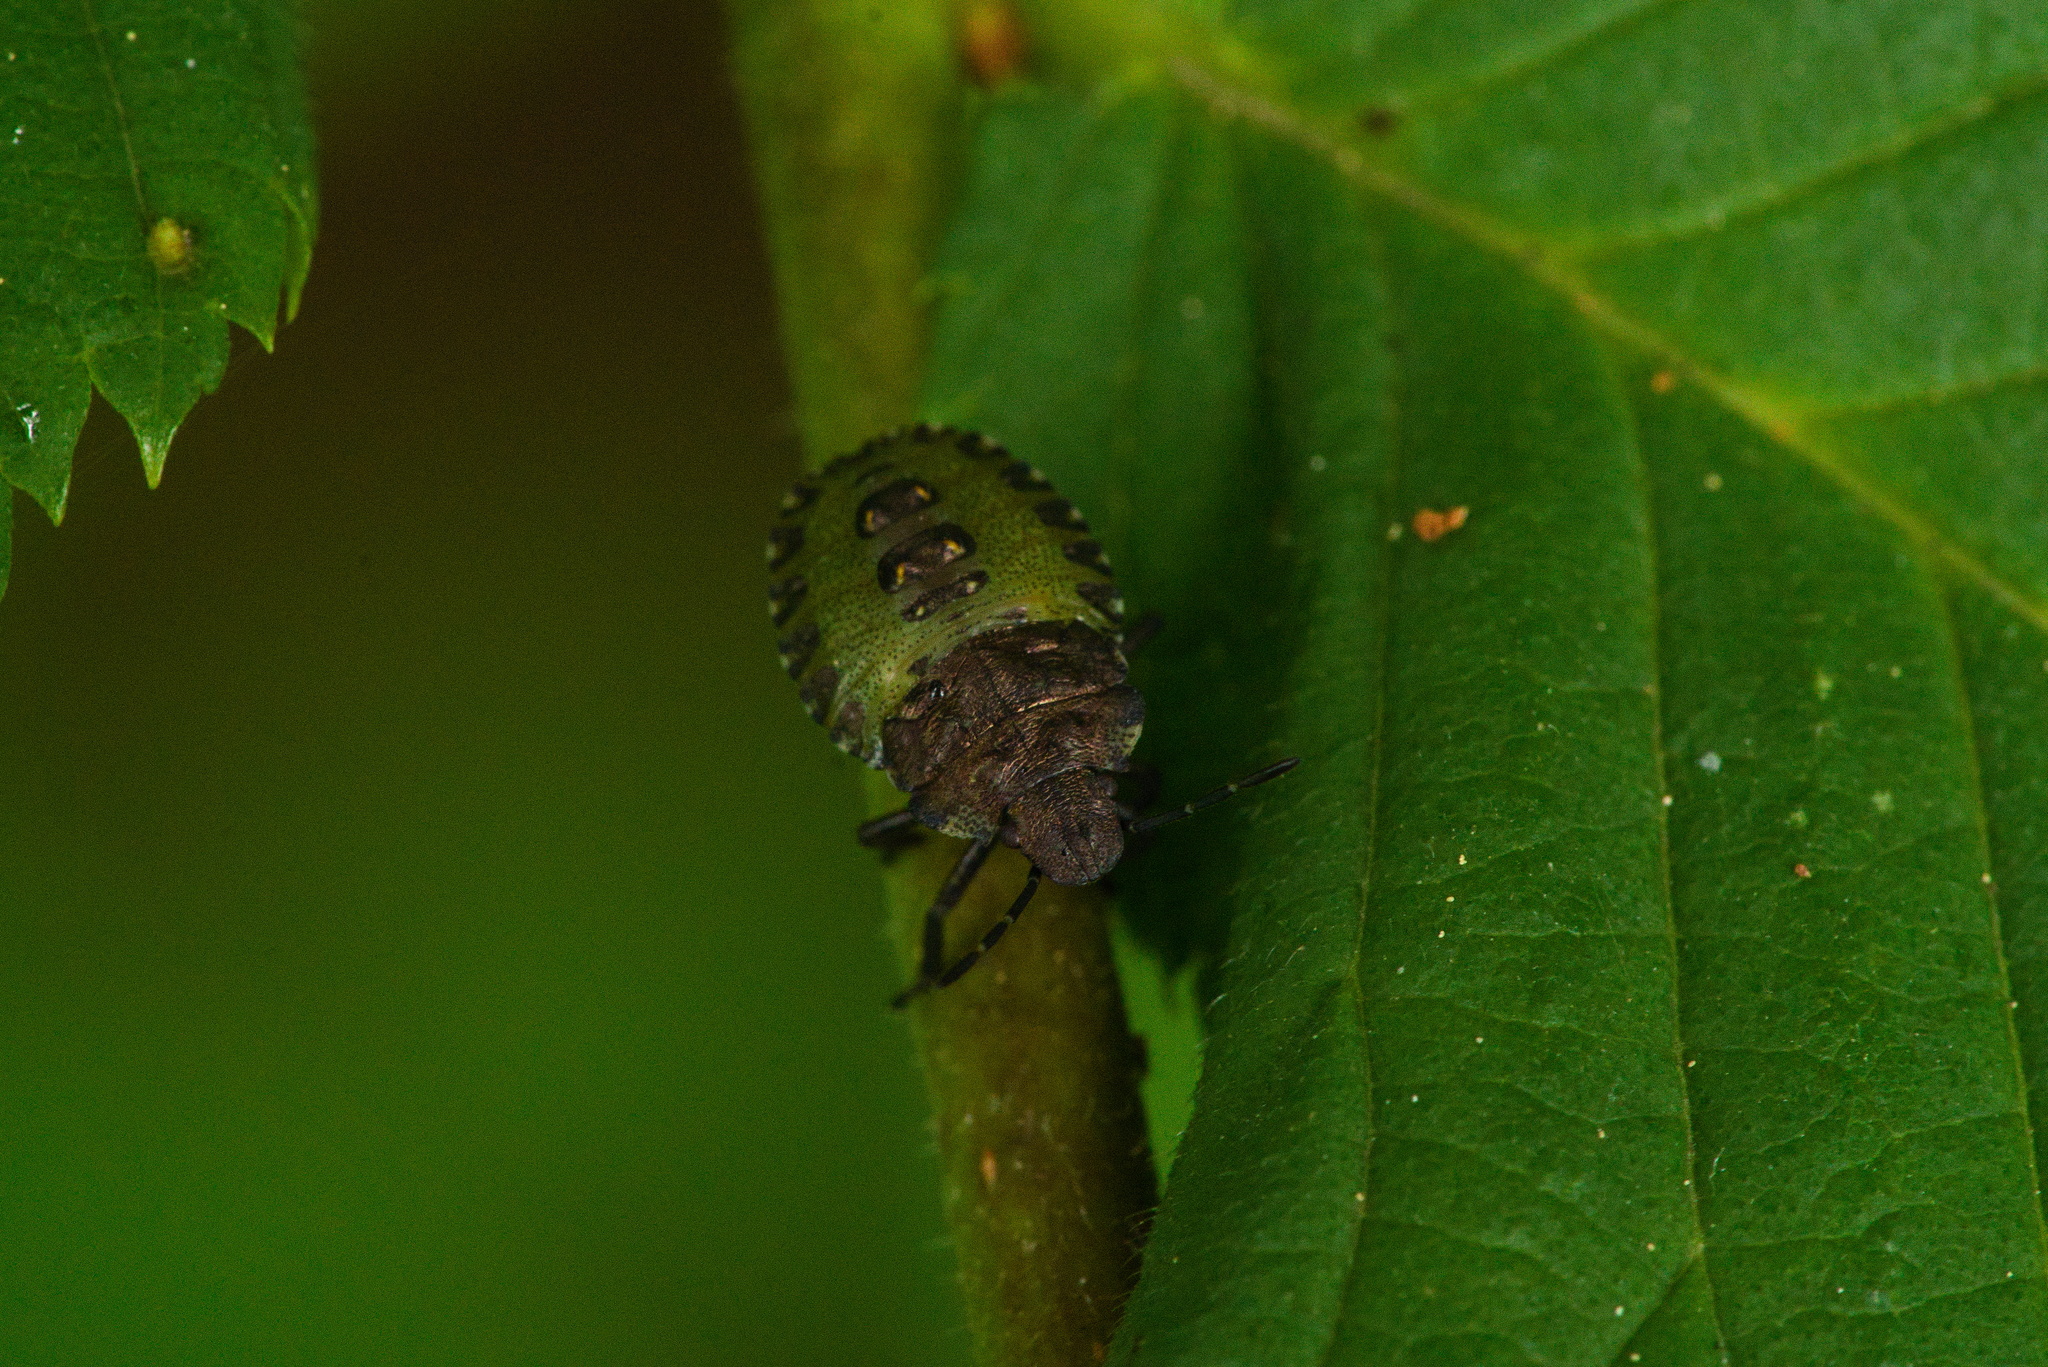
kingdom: Animalia
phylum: Arthropoda
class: Insecta
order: Hemiptera
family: Pentatomidae
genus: Pentatoma
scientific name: Pentatoma rufipes
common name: Forest bug
